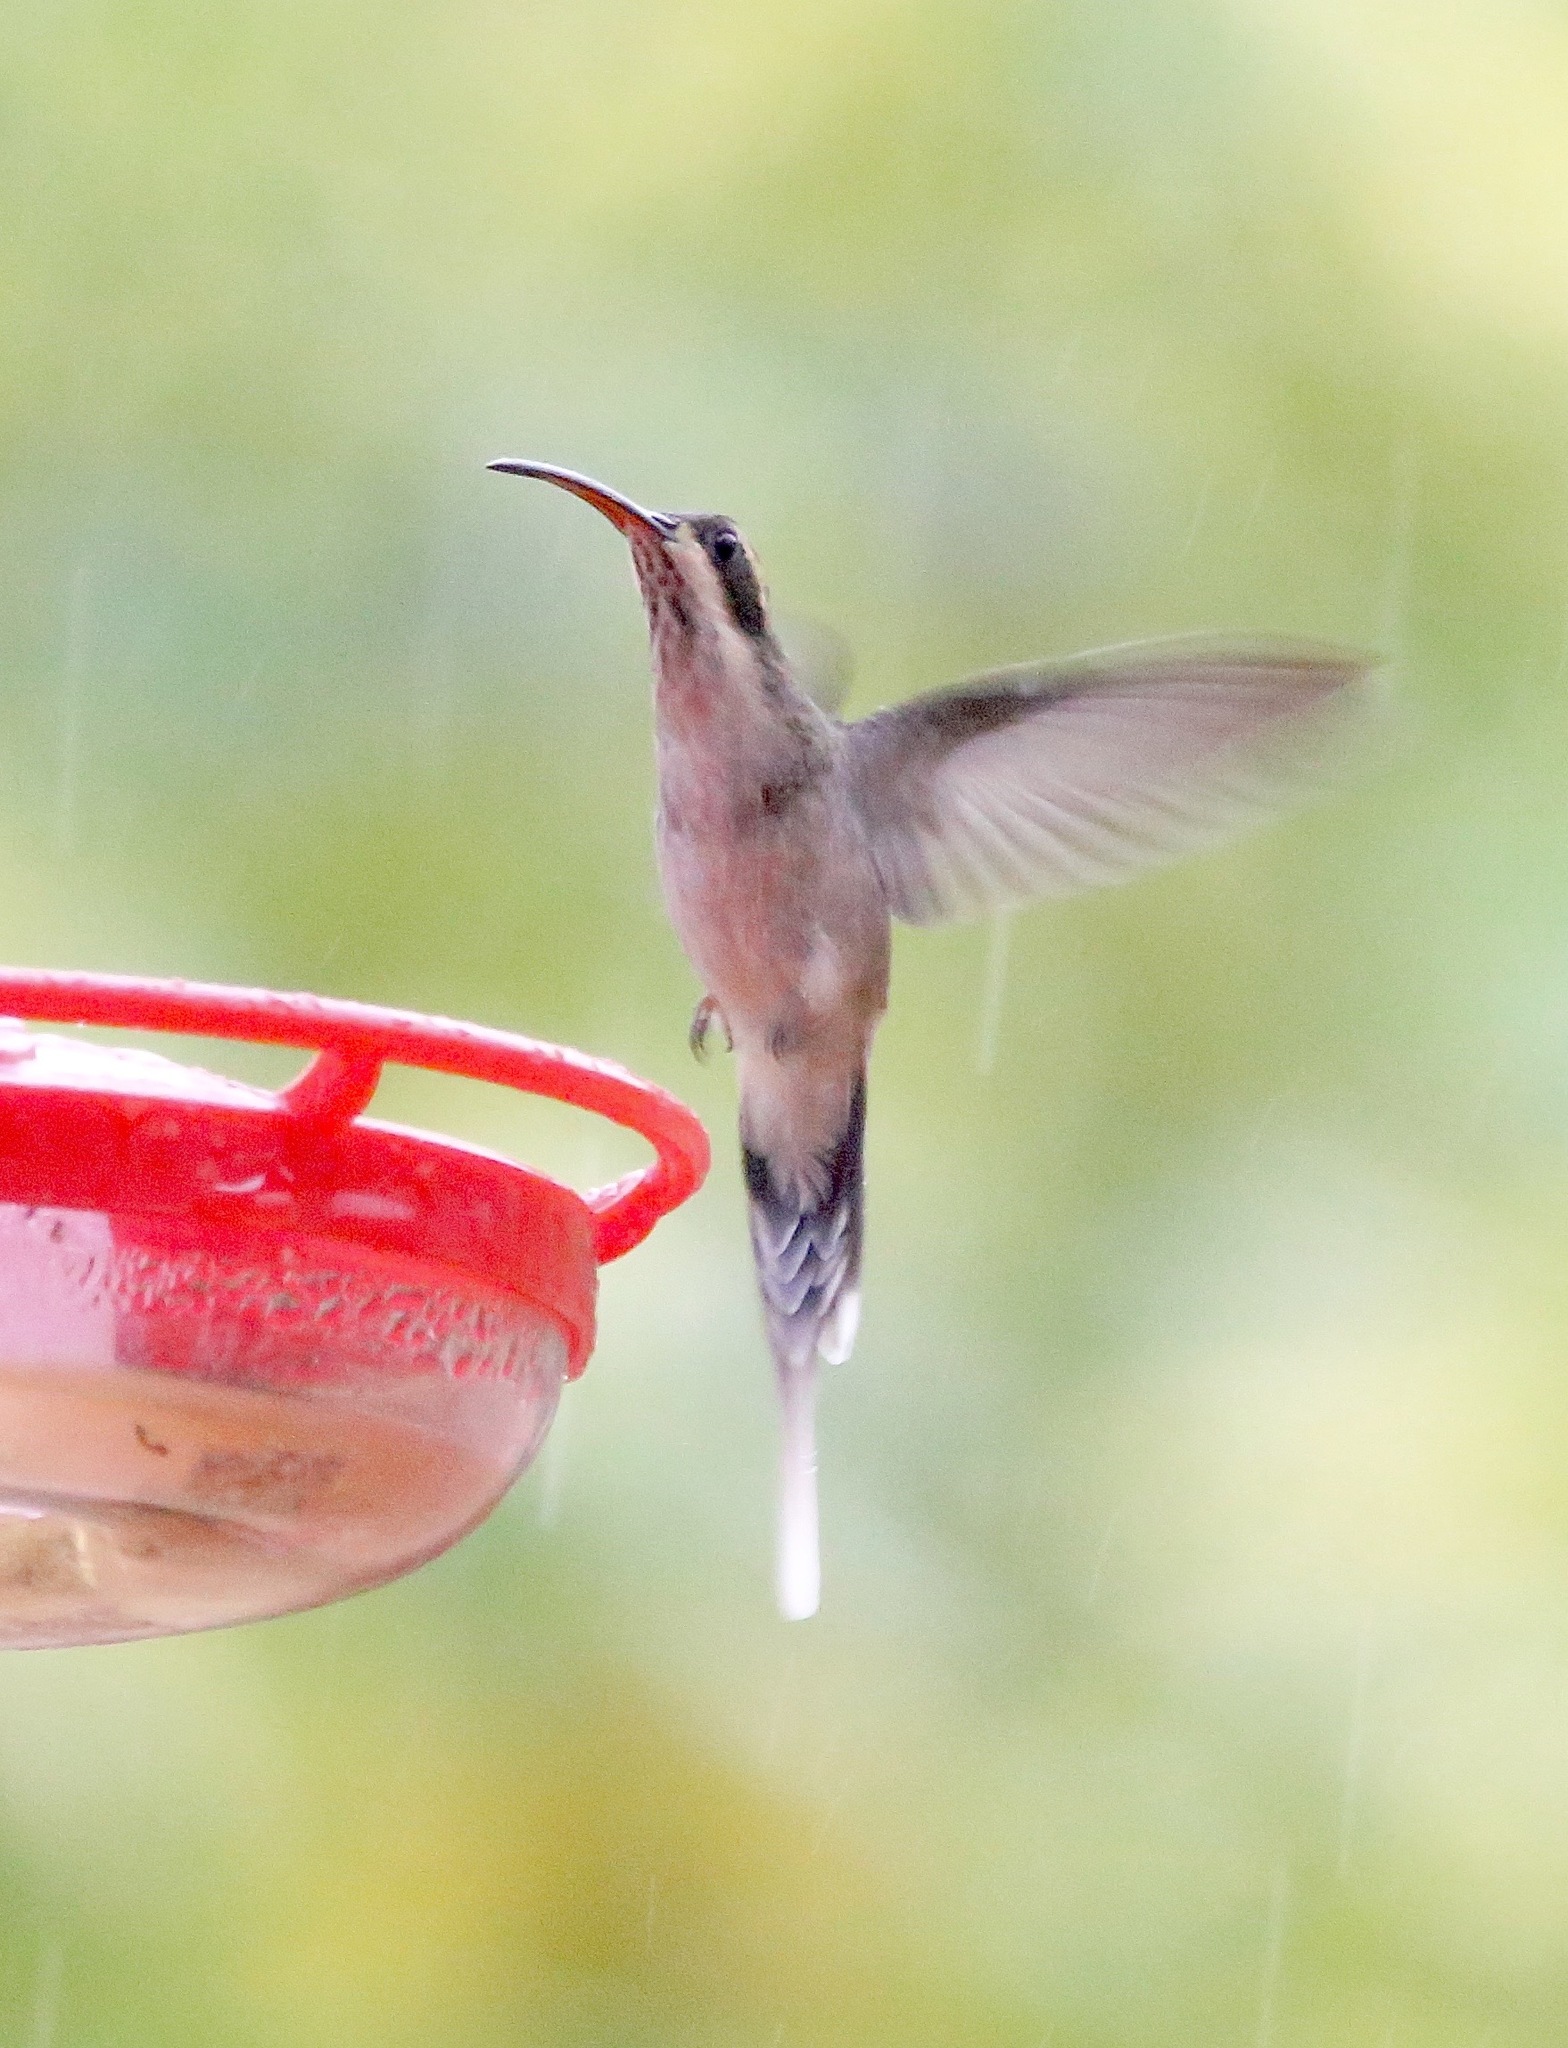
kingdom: Animalia
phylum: Chordata
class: Aves
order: Apodiformes
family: Trochilidae
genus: Phaethornis
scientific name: Phaethornis anthophilus
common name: Pale-bellied hermit
